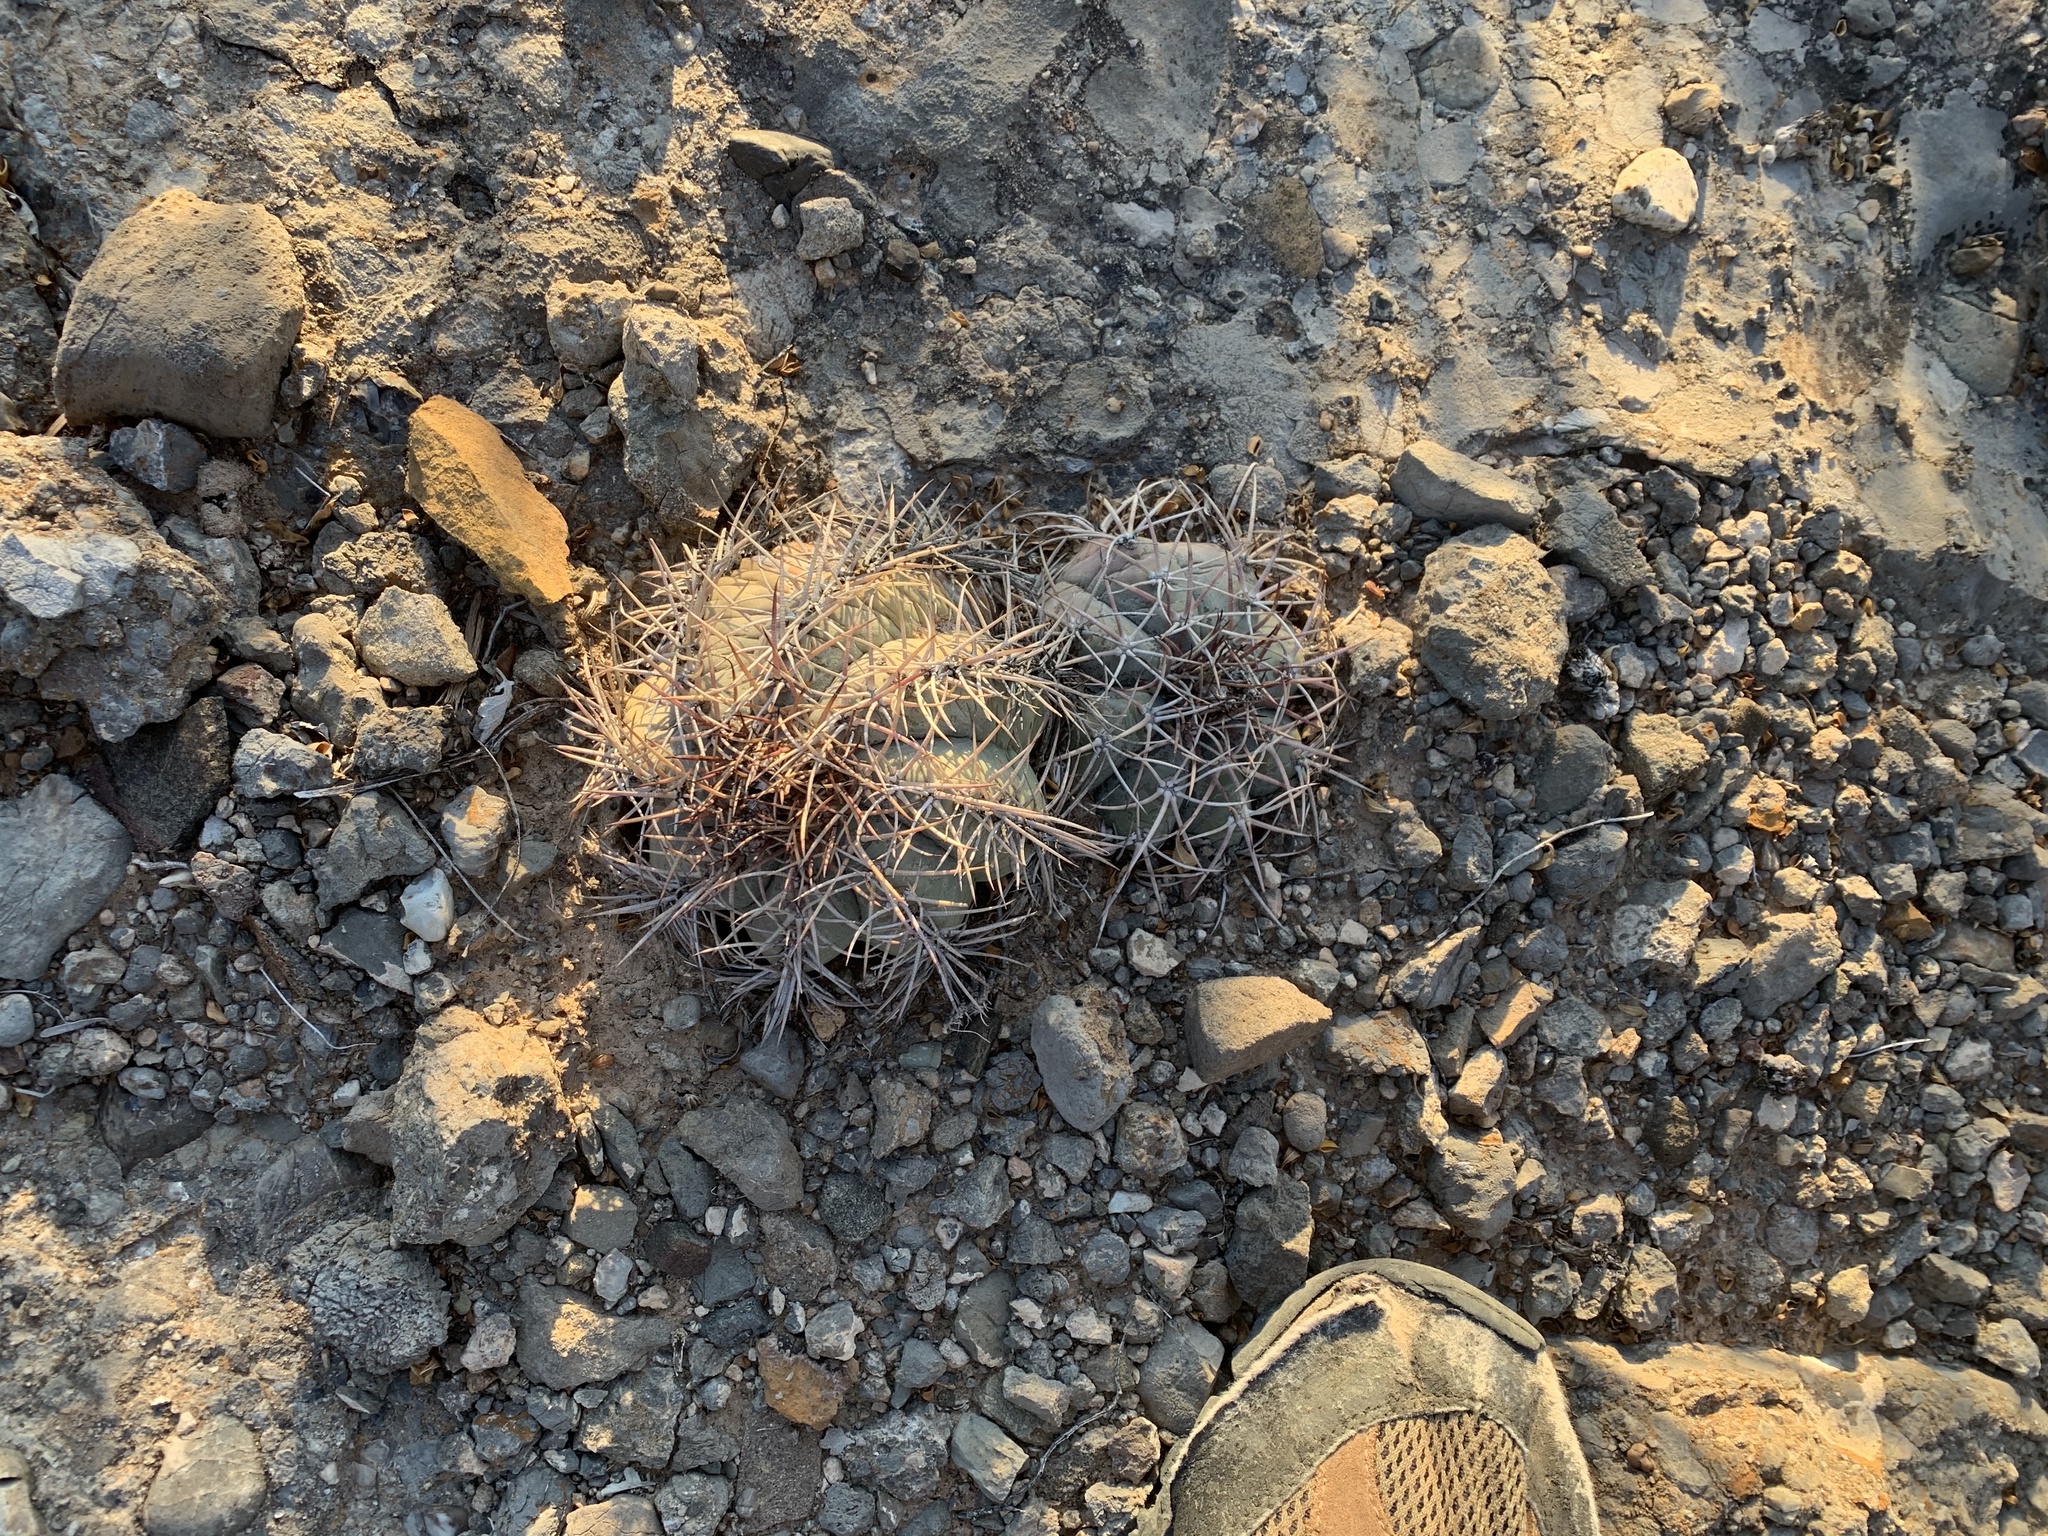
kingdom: Plantae
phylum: Tracheophyta
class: Magnoliopsida
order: Caryophyllales
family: Cactaceae
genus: Echinocactus
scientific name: Echinocactus horizonthalonius
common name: Devilshead
